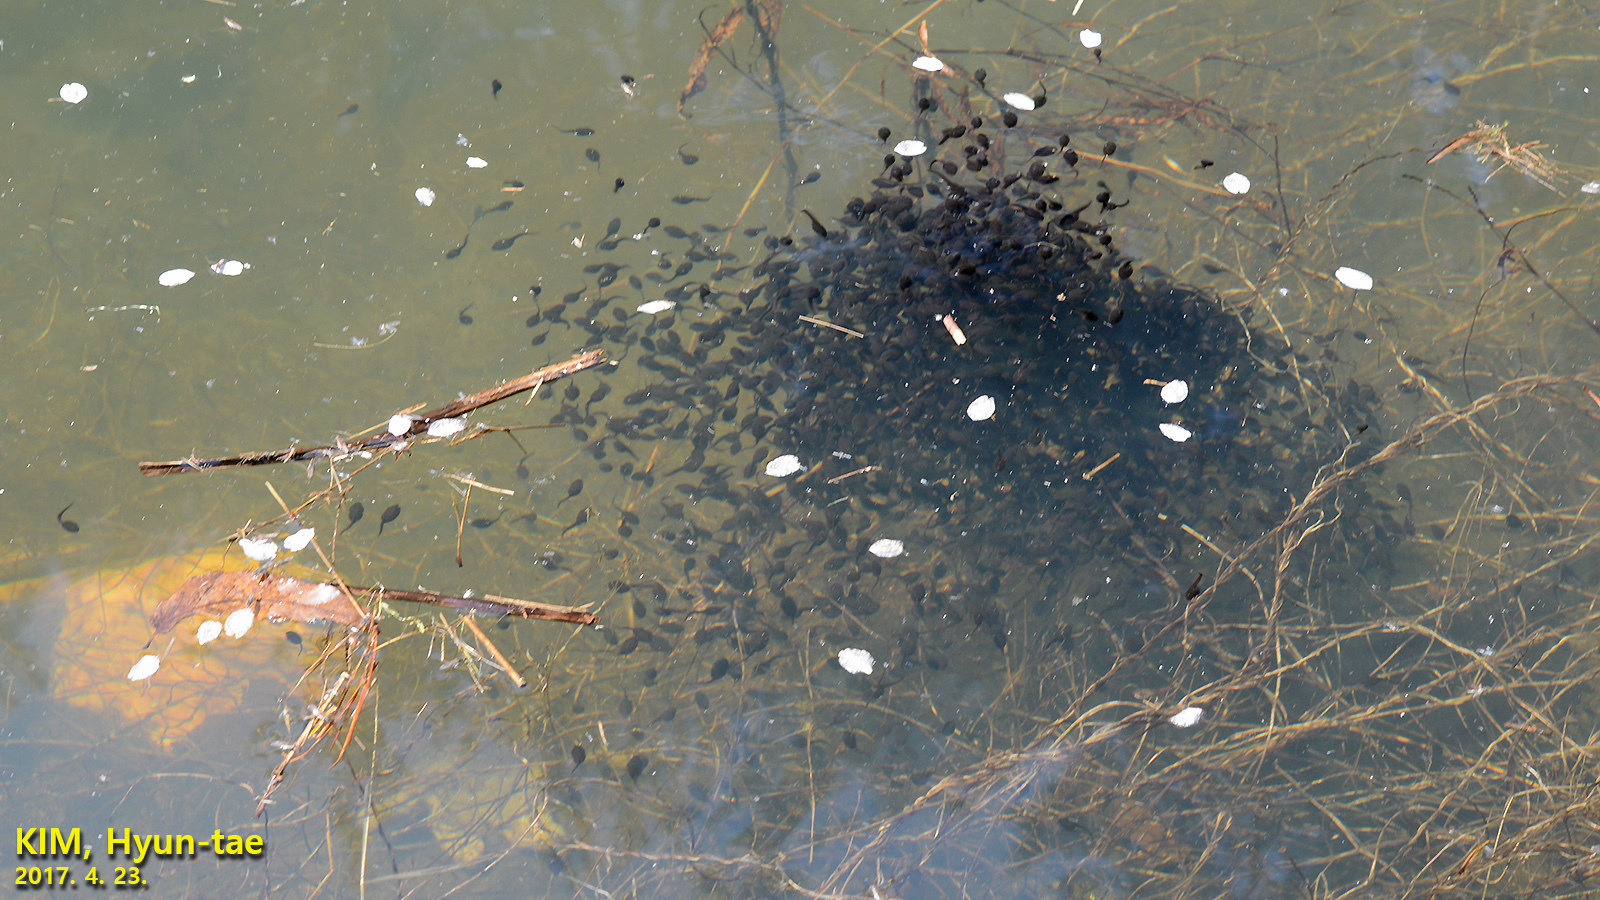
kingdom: Animalia
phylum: Chordata
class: Amphibia
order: Anura
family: Bufonidae
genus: Bufo
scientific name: Bufo gargarizans
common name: Asiatic toad
